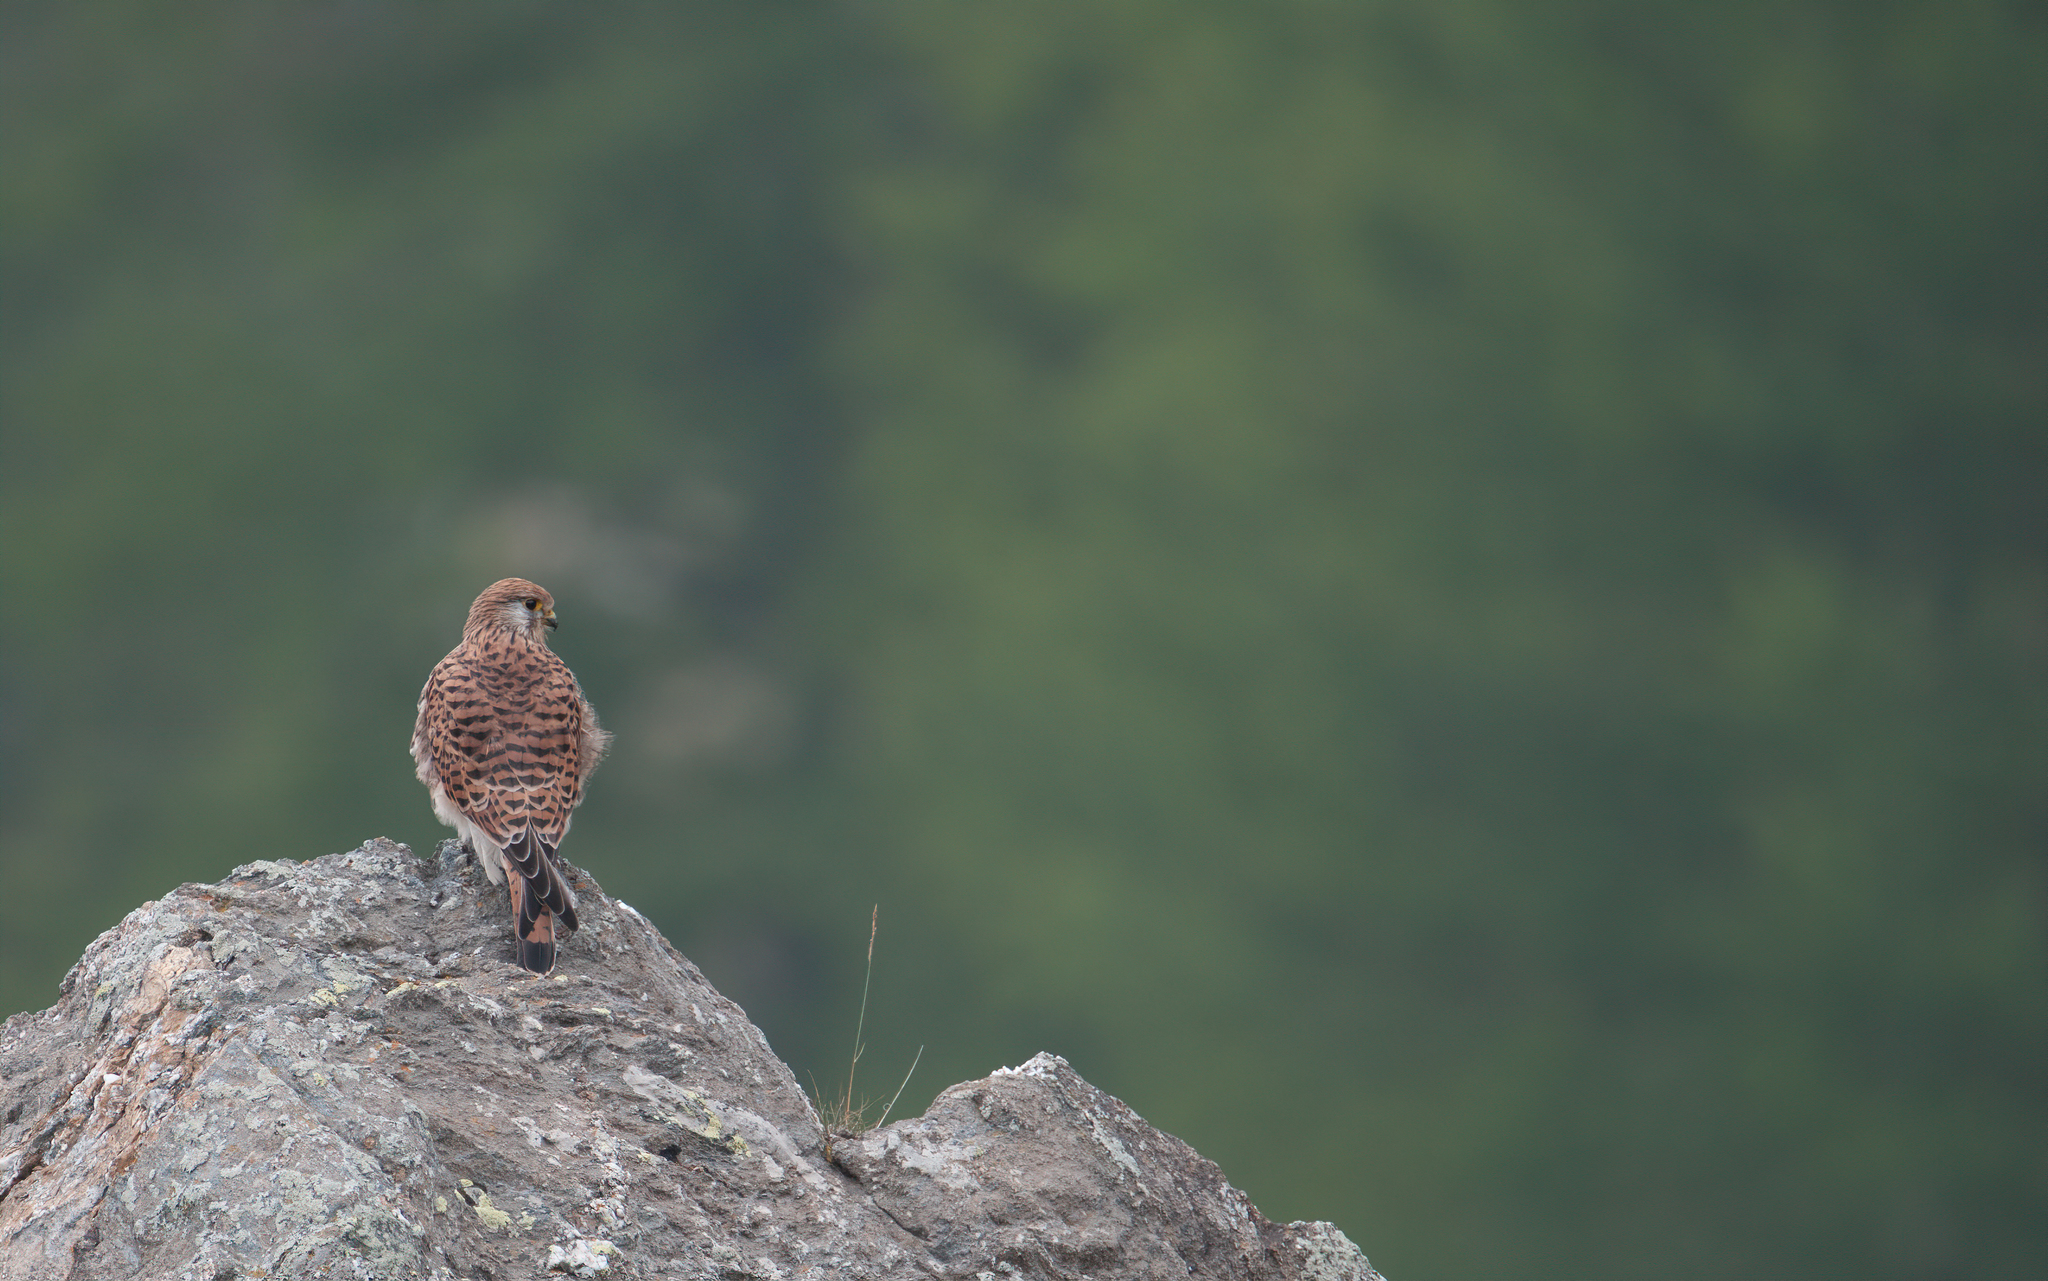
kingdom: Animalia
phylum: Chordata
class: Aves
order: Falconiformes
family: Falconidae
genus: Falco
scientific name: Falco tinnunculus
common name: Common kestrel
